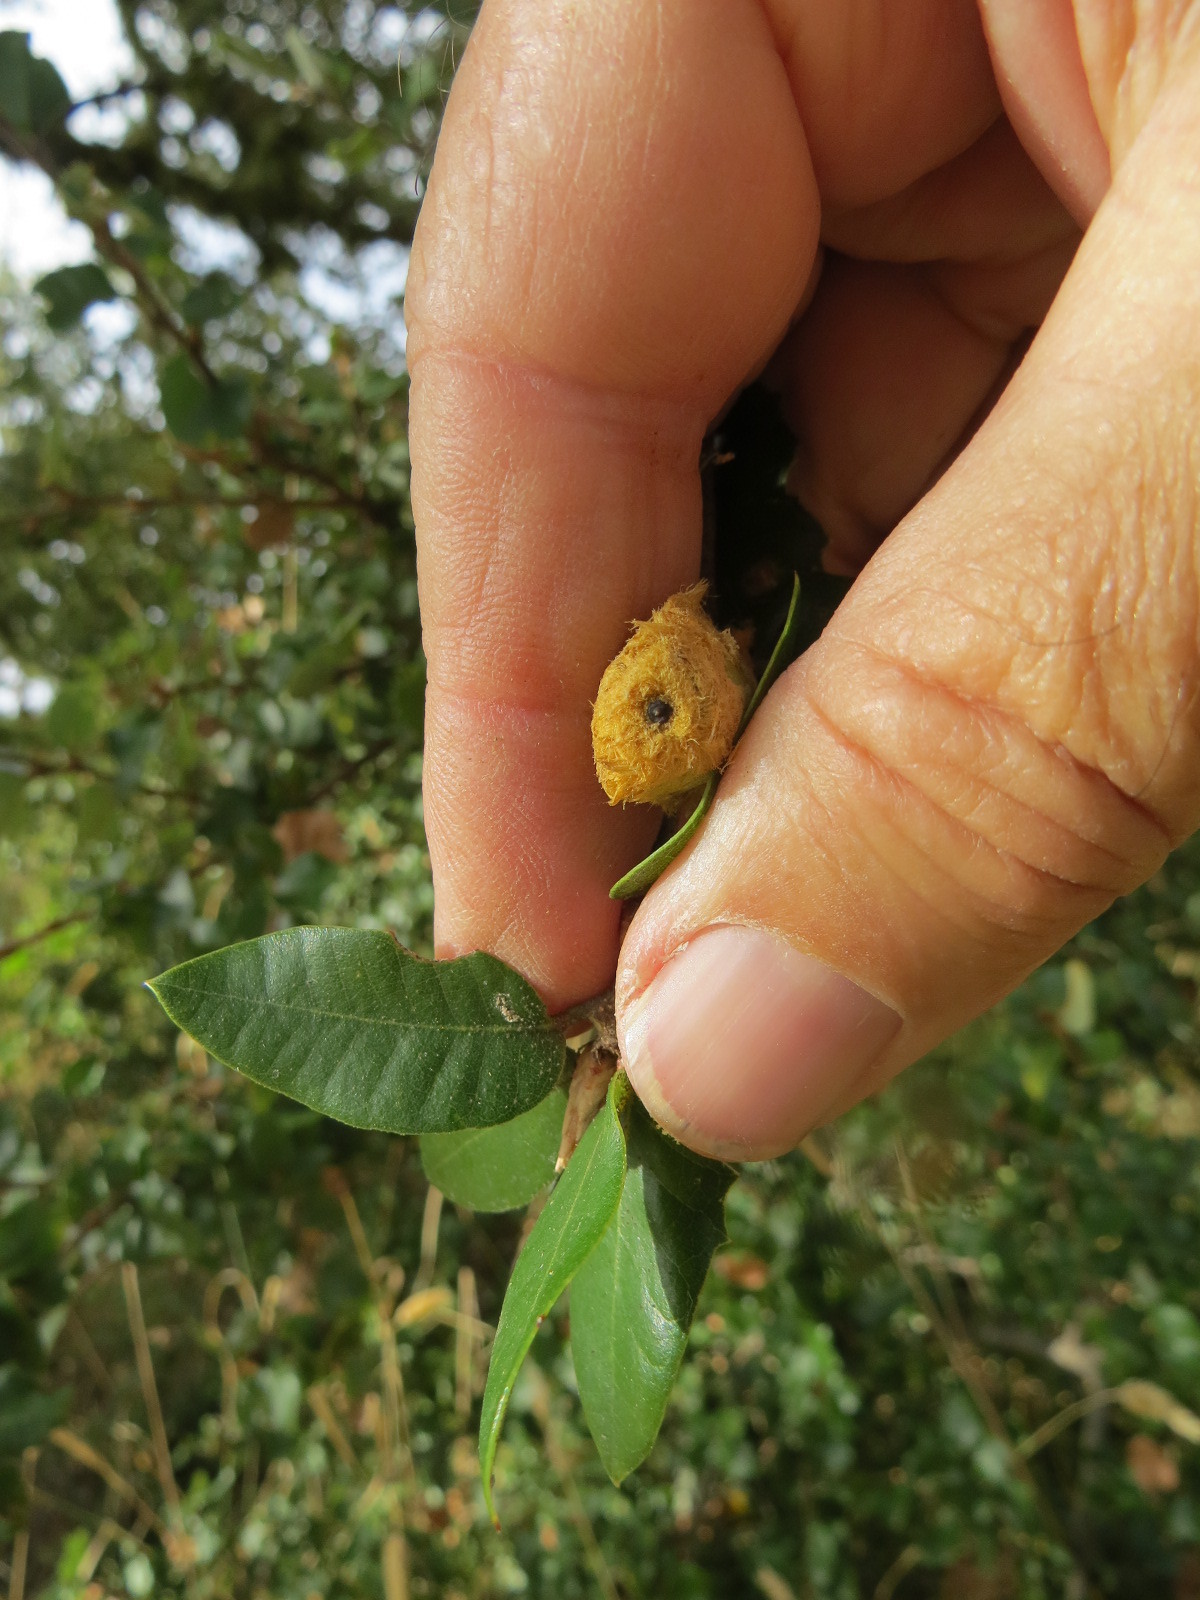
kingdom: Animalia
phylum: Arthropoda
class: Insecta
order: Hymenoptera
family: Cynipidae
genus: Heteroecus
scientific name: Heteroecus
